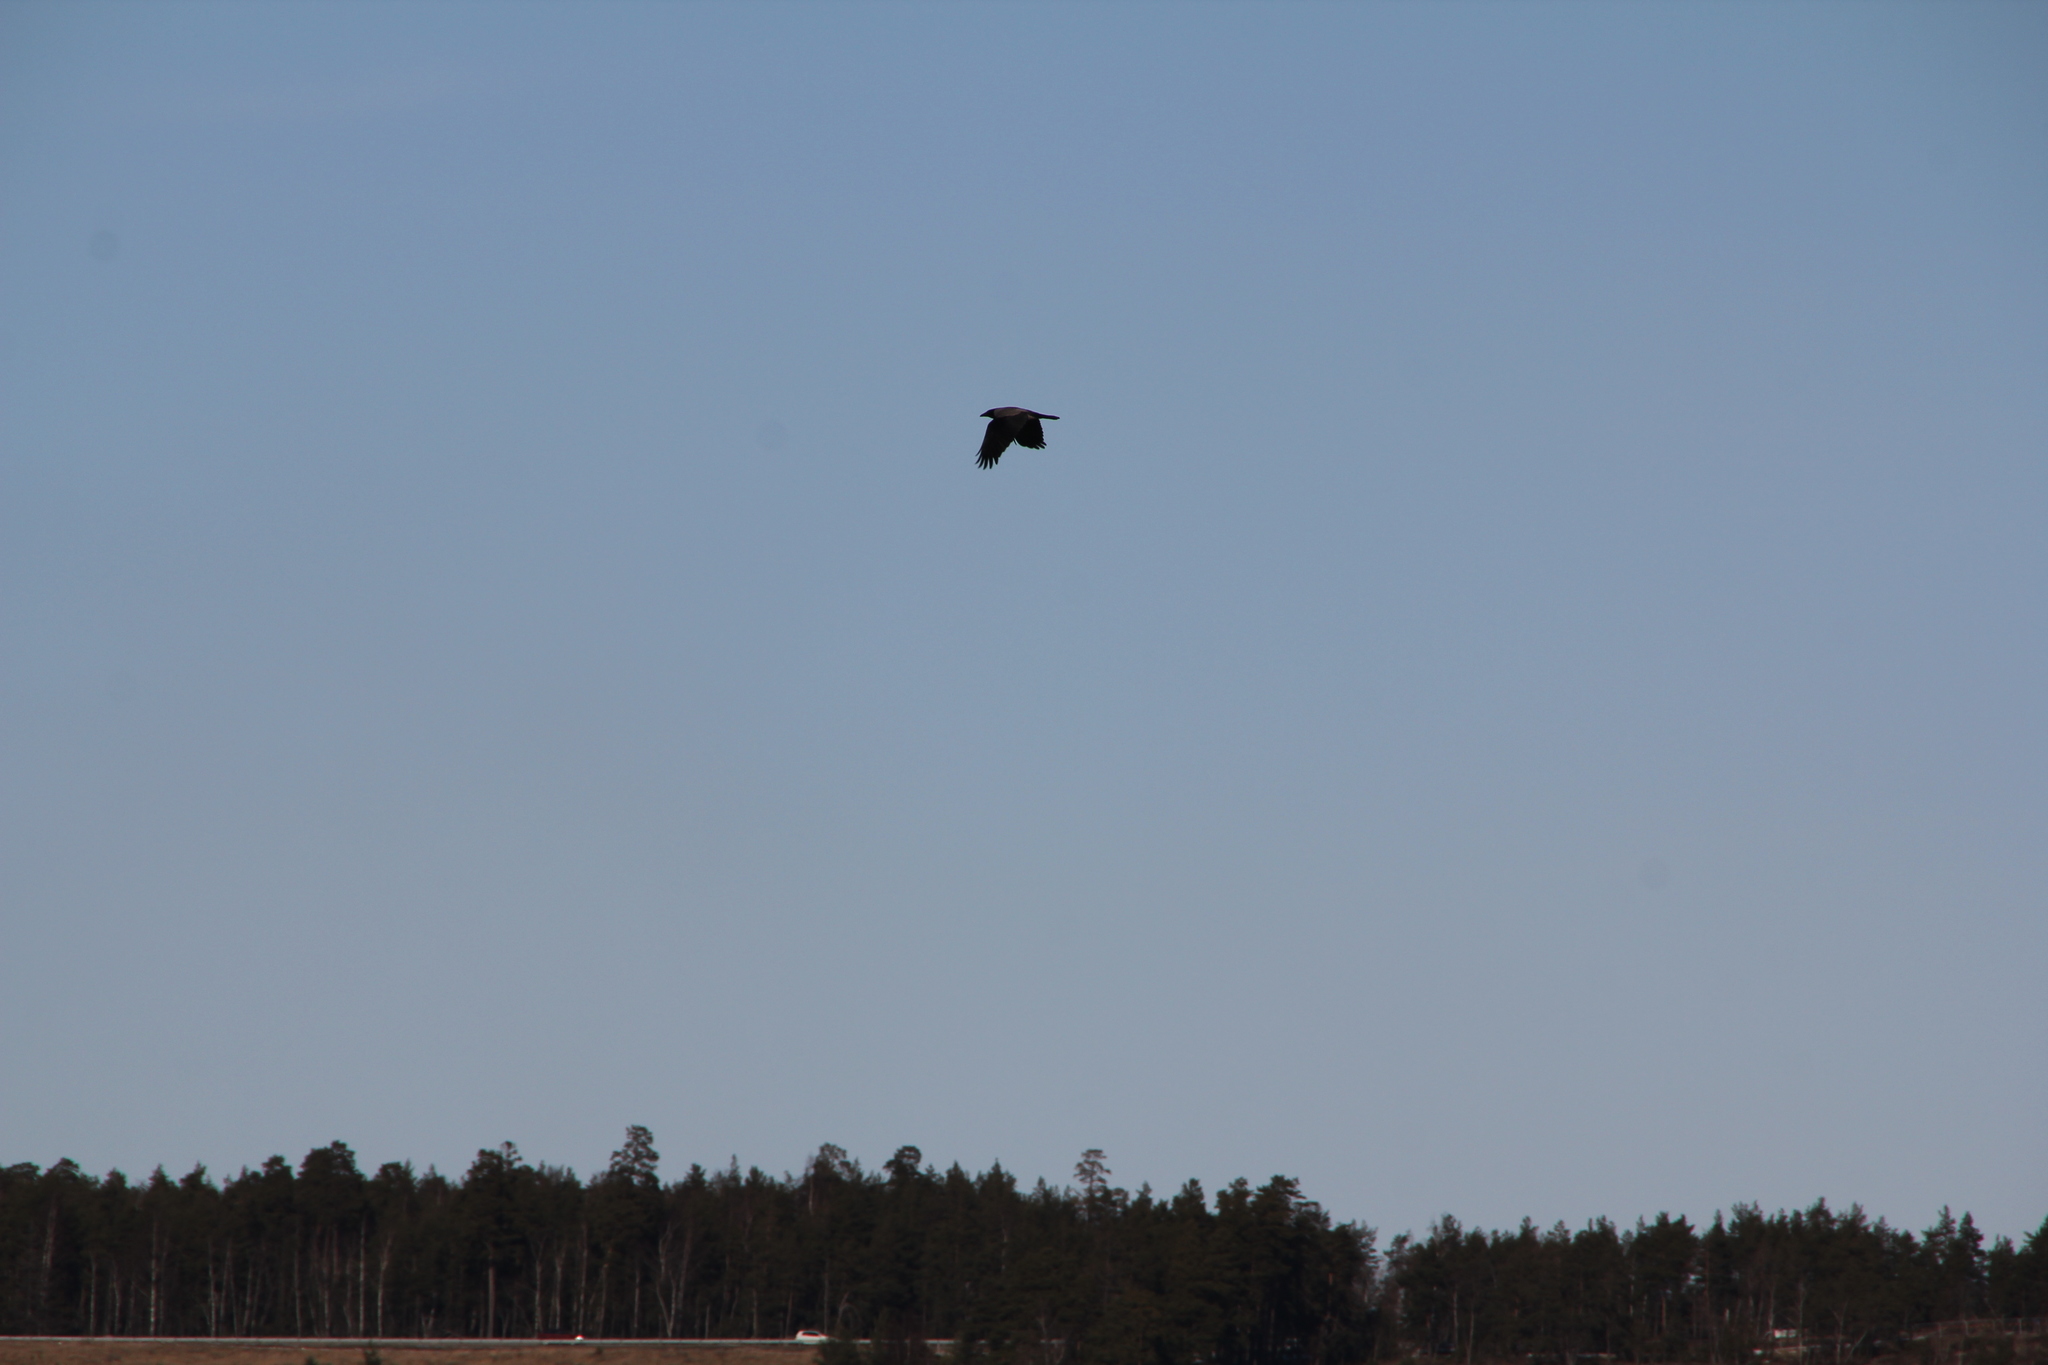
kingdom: Animalia
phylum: Chordata
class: Aves
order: Passeriformes
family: Corvidae
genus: Corvus
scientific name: Corvus cornix
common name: Hooded crow
